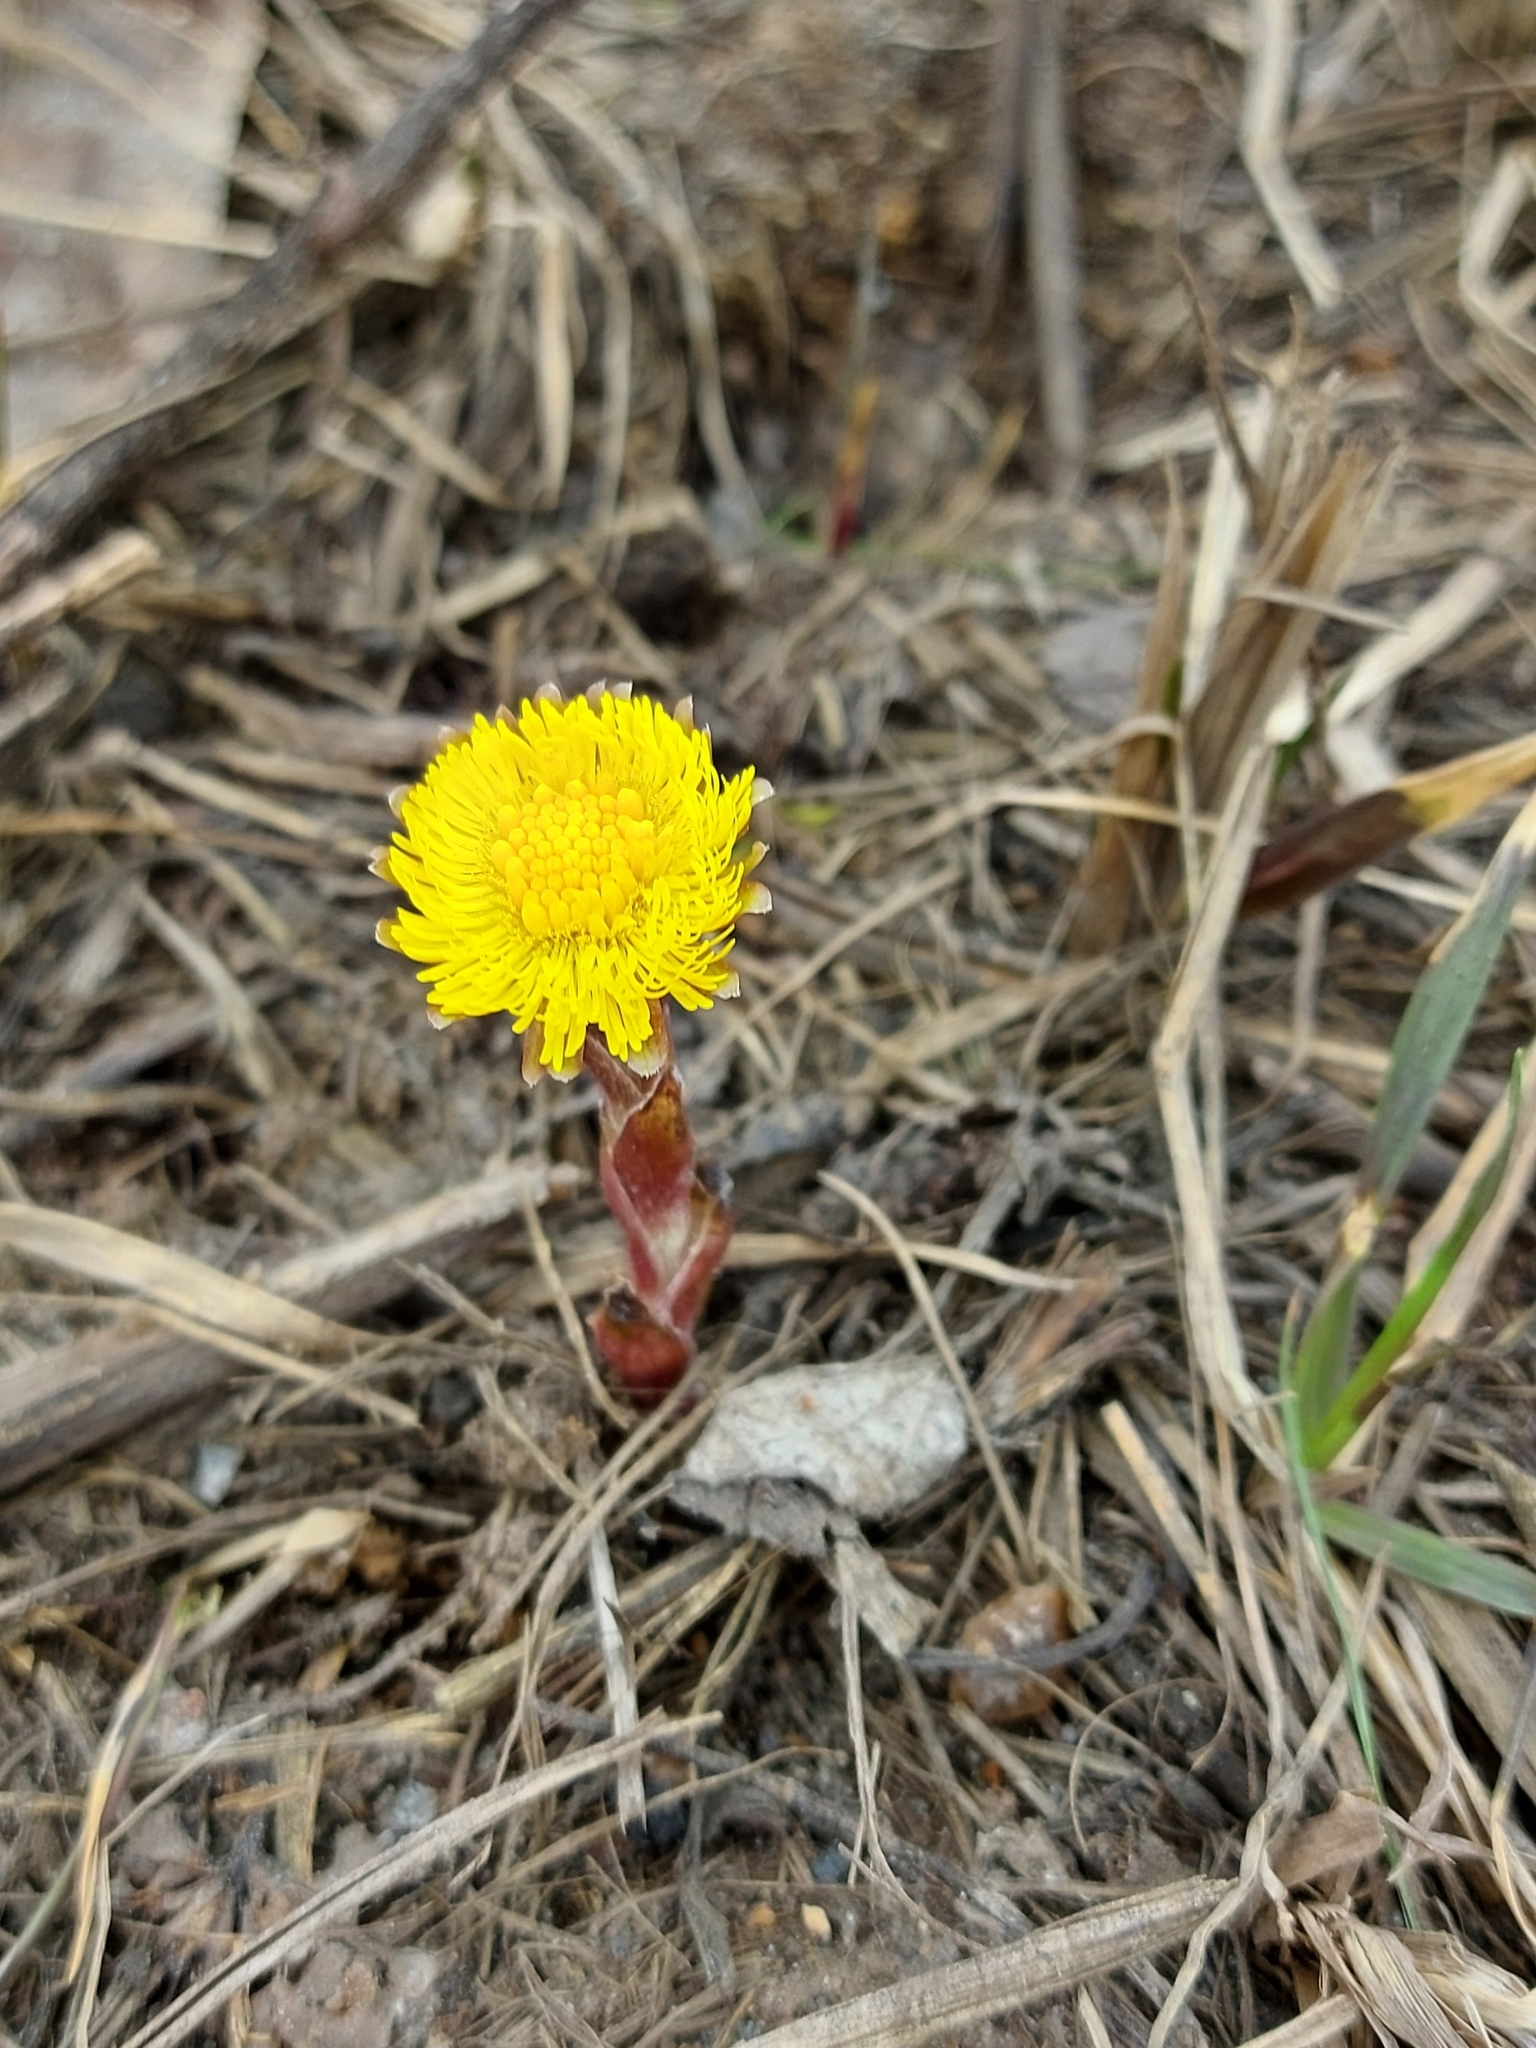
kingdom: Plantae
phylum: Tracheophyta
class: Magnoliopsida
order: Asterales
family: Asteraceae
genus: Tussilago
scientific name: Tussilago farfara
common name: Coltsfoot
